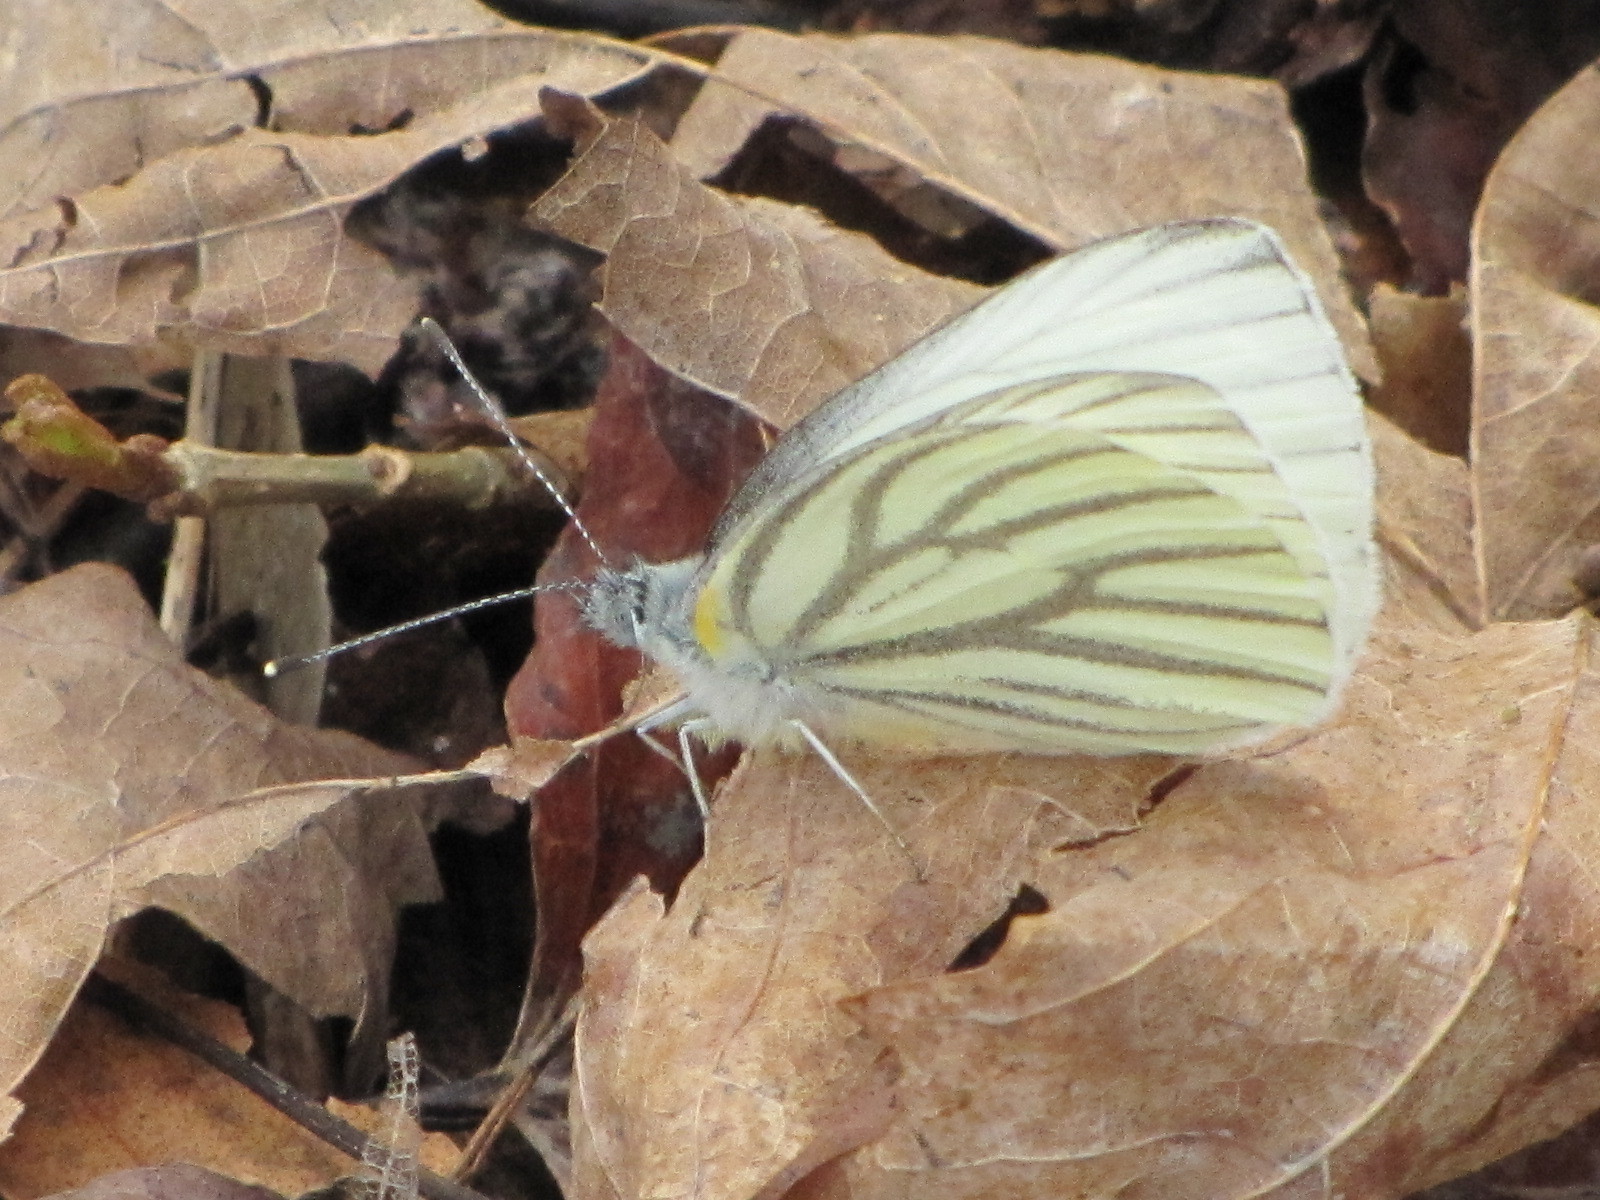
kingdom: Animalia
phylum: Arthropoda
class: Insecta
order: Lepidoptera
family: Pieridae
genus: Pieris
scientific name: Pieris oleracea
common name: Mustard white
